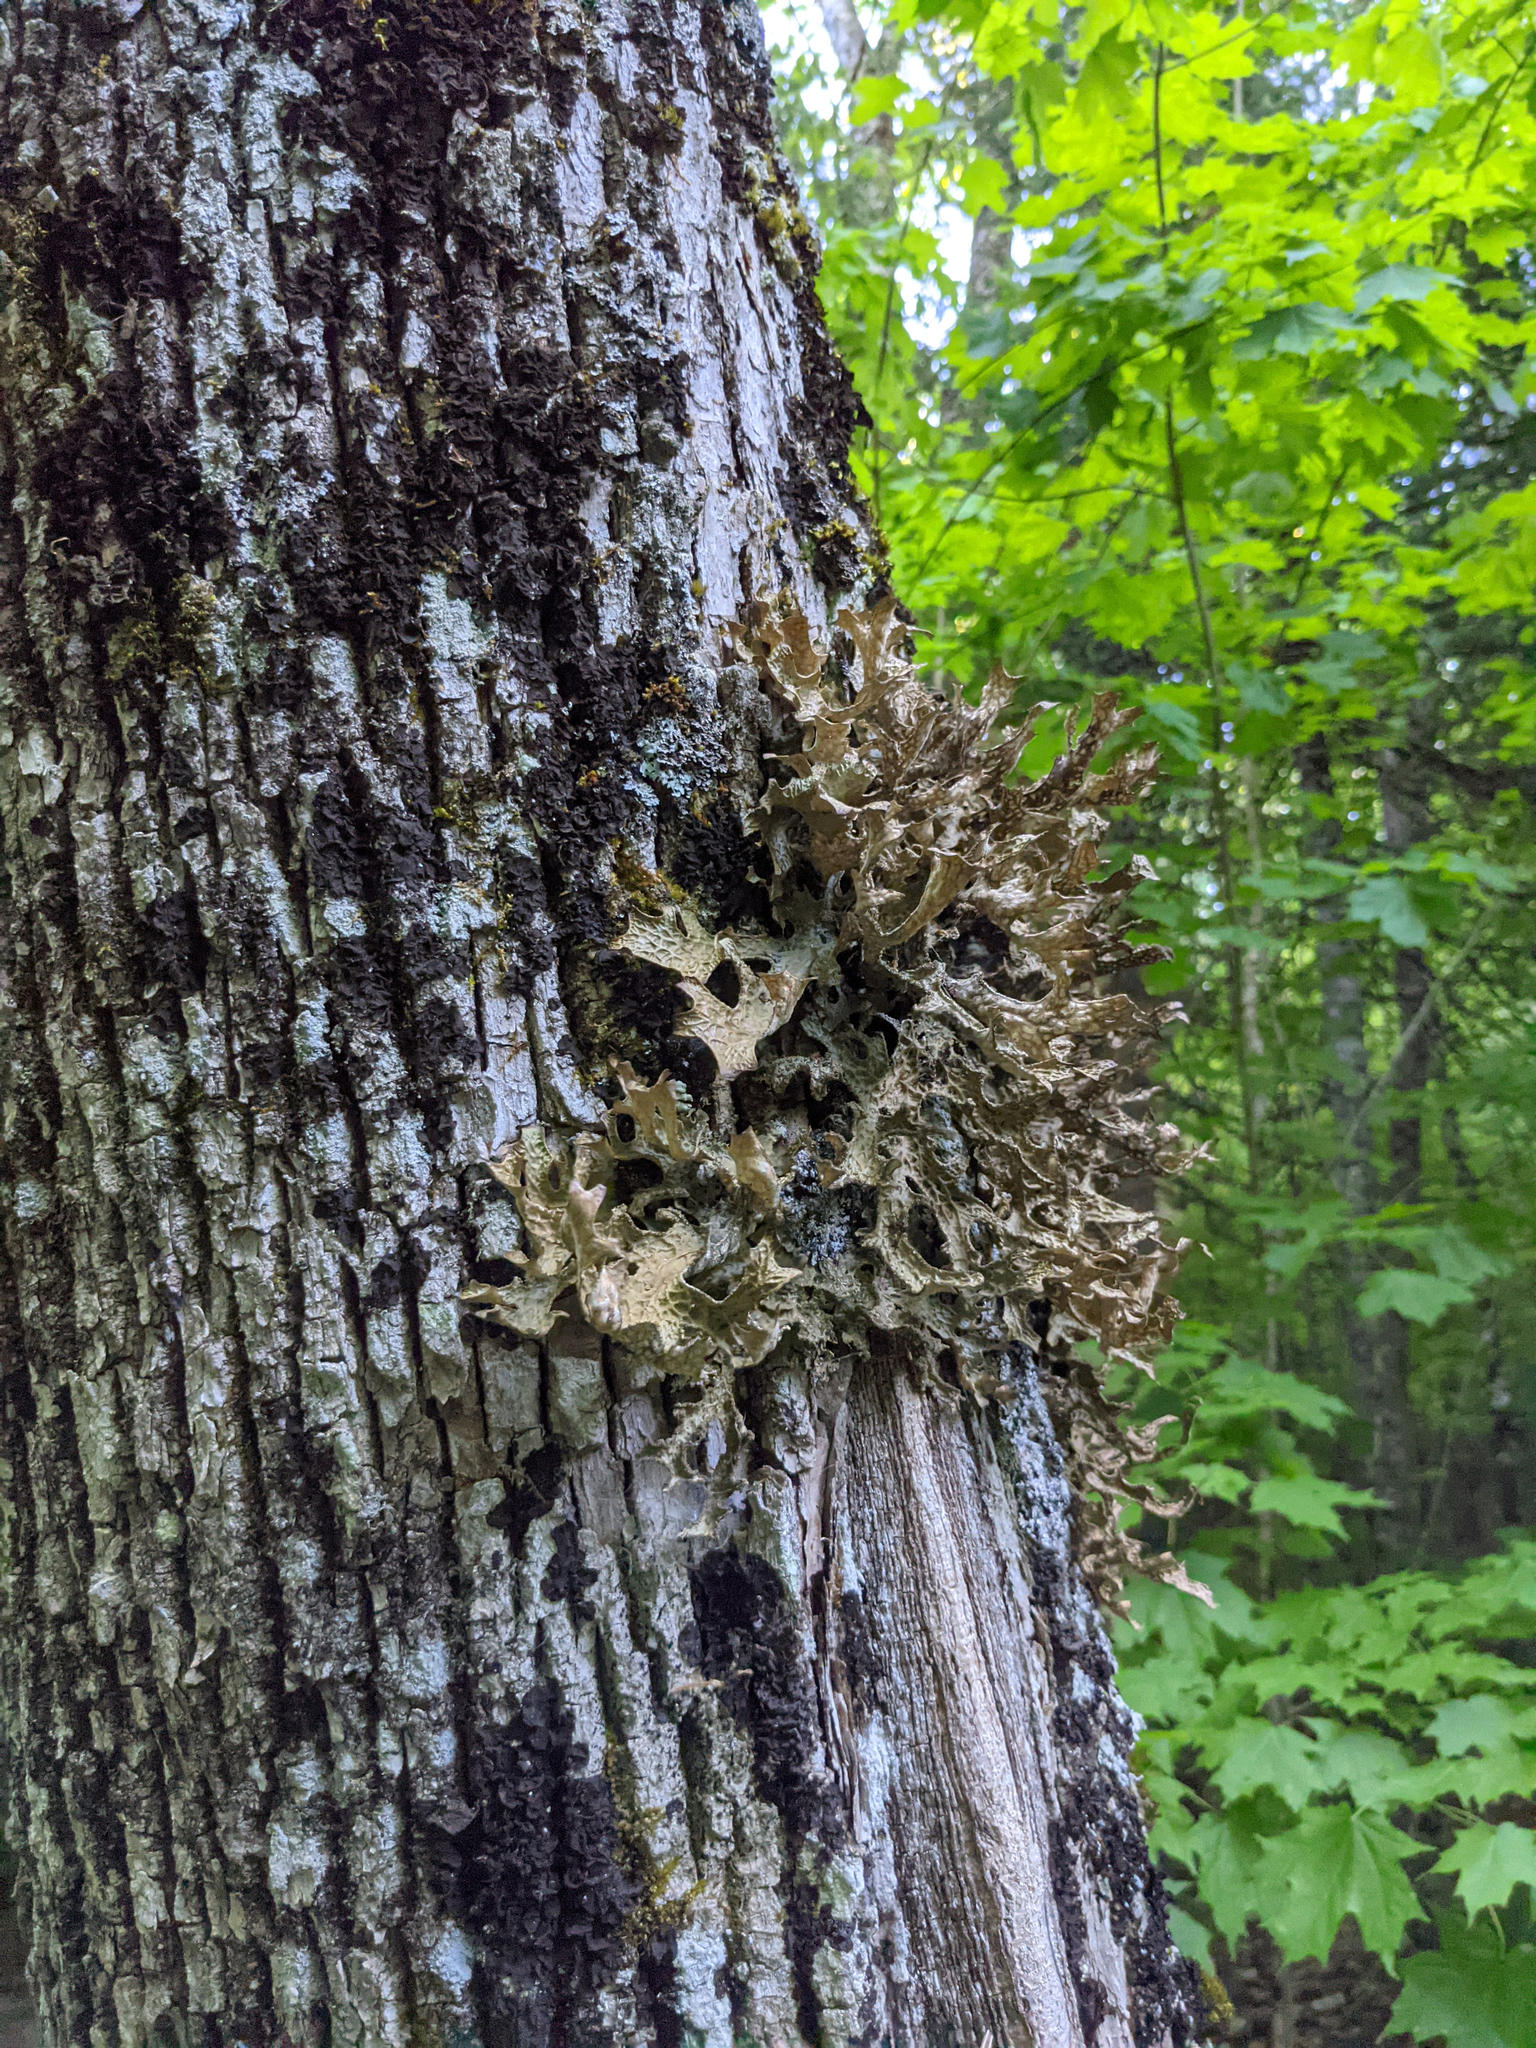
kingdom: Fungi
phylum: Ascomycota
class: Lecanoromycetes
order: Peltigerales
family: Lobariaceae
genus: Lobaria
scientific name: Lobaria pulmonaria
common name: Lungwort
